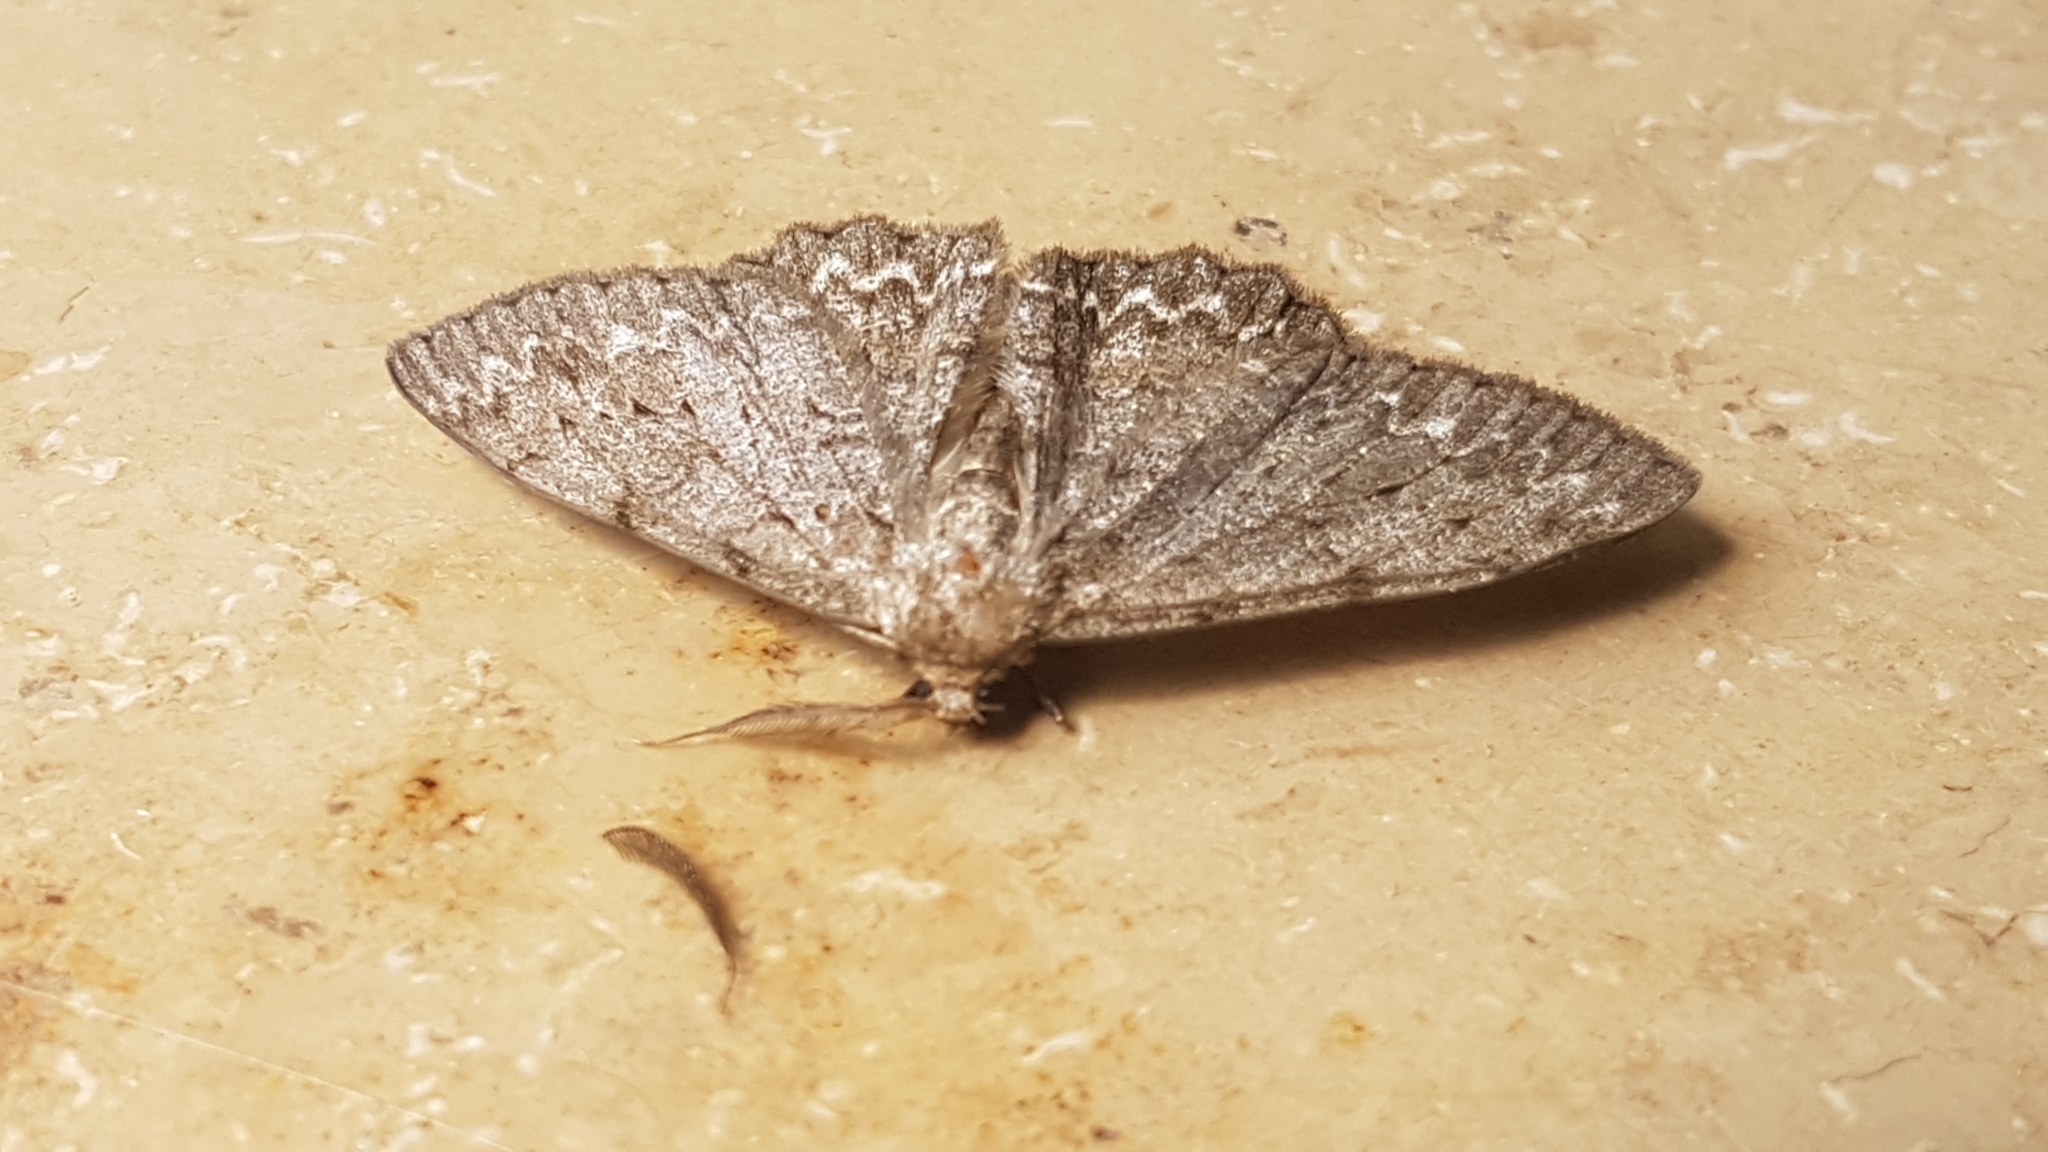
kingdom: Animalia
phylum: Arthropoda
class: Insecta
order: Lepidoptera
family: Geometridae
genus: Hypomecis
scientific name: Hypomecis punctinalis
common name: Pale oak beauty
